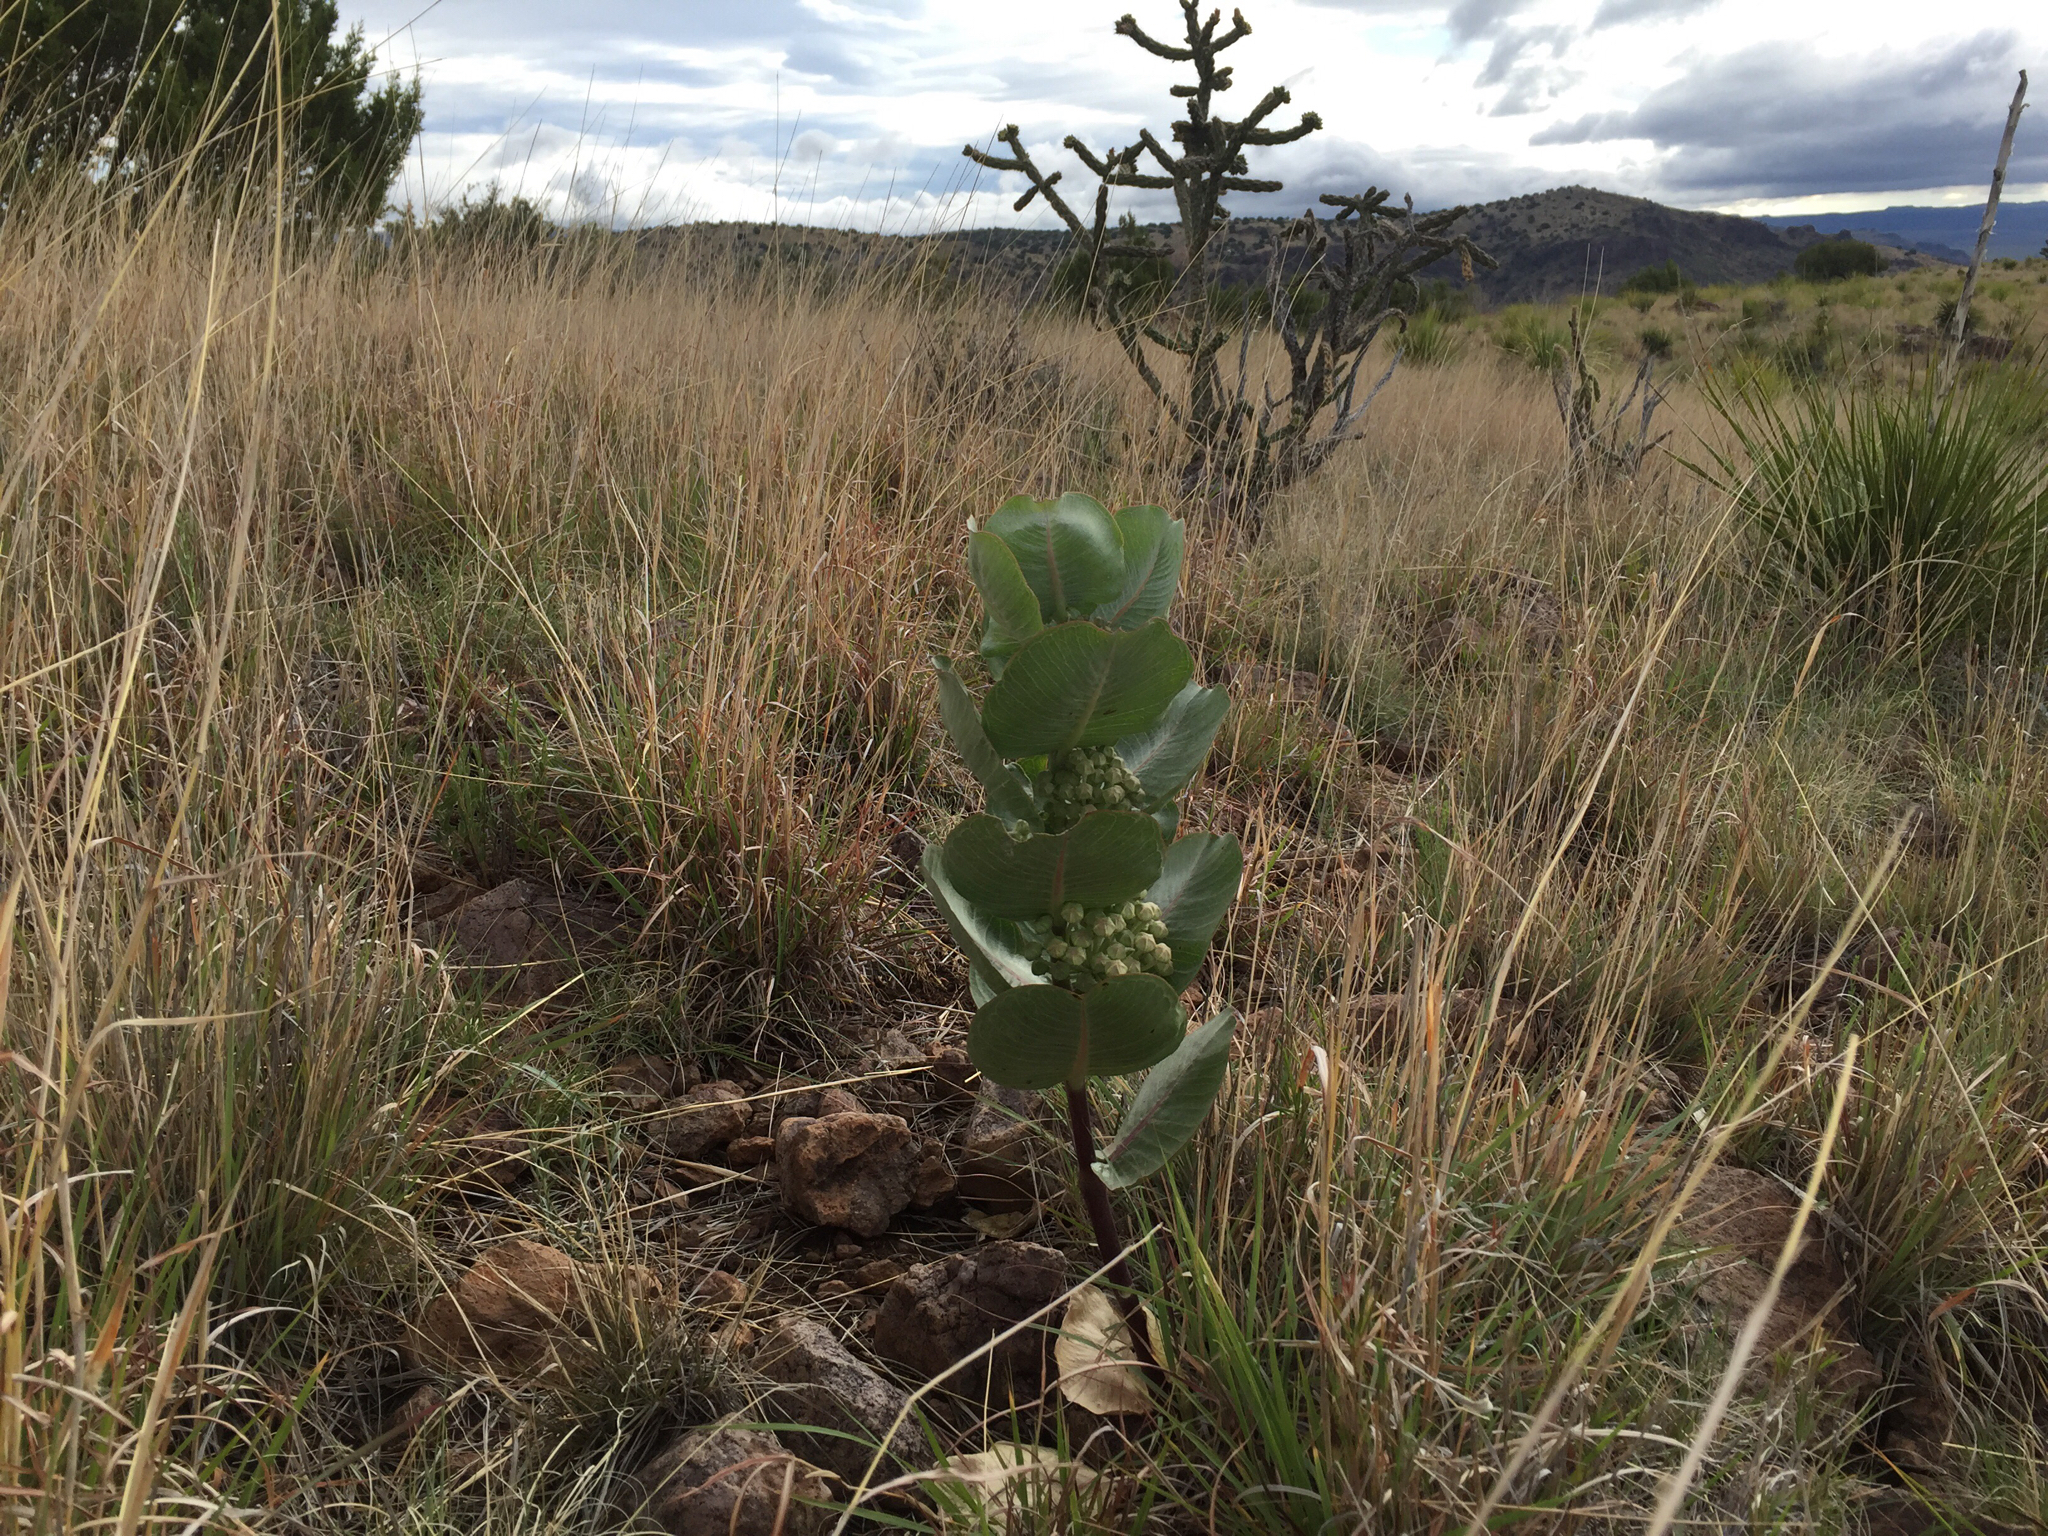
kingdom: Plantae
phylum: Tracheophyta
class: Magnoliopsida
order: Gentianales
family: Apocynaceae
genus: Asclepias
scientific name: Asclepias latifolia
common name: Broadleaf milkweed
